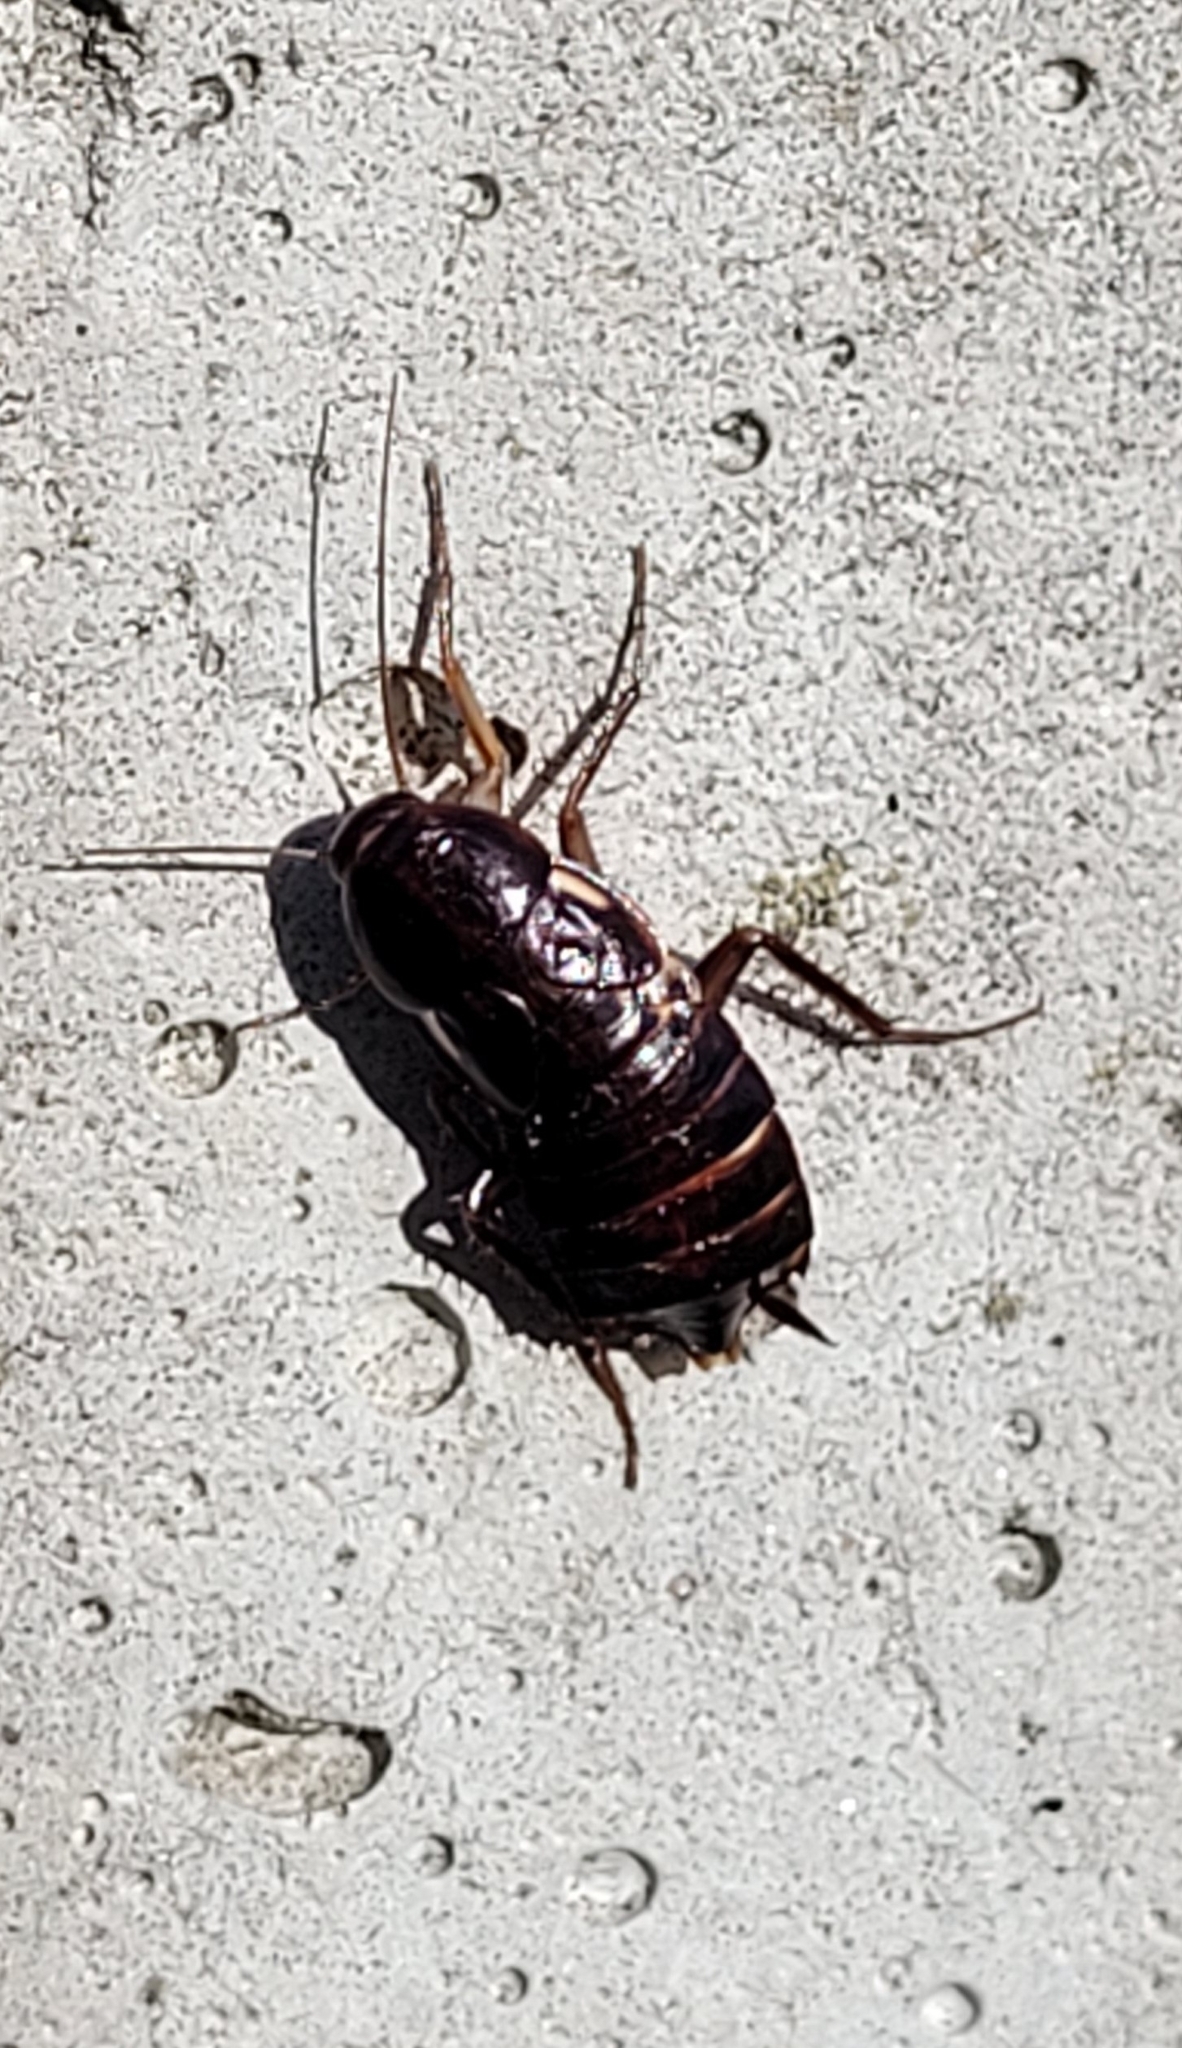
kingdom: Animalia
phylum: Arthropoda
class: Insecta
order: Blattodea
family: Blattidae
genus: Periplaneta
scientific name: Periplaneta lateralis
